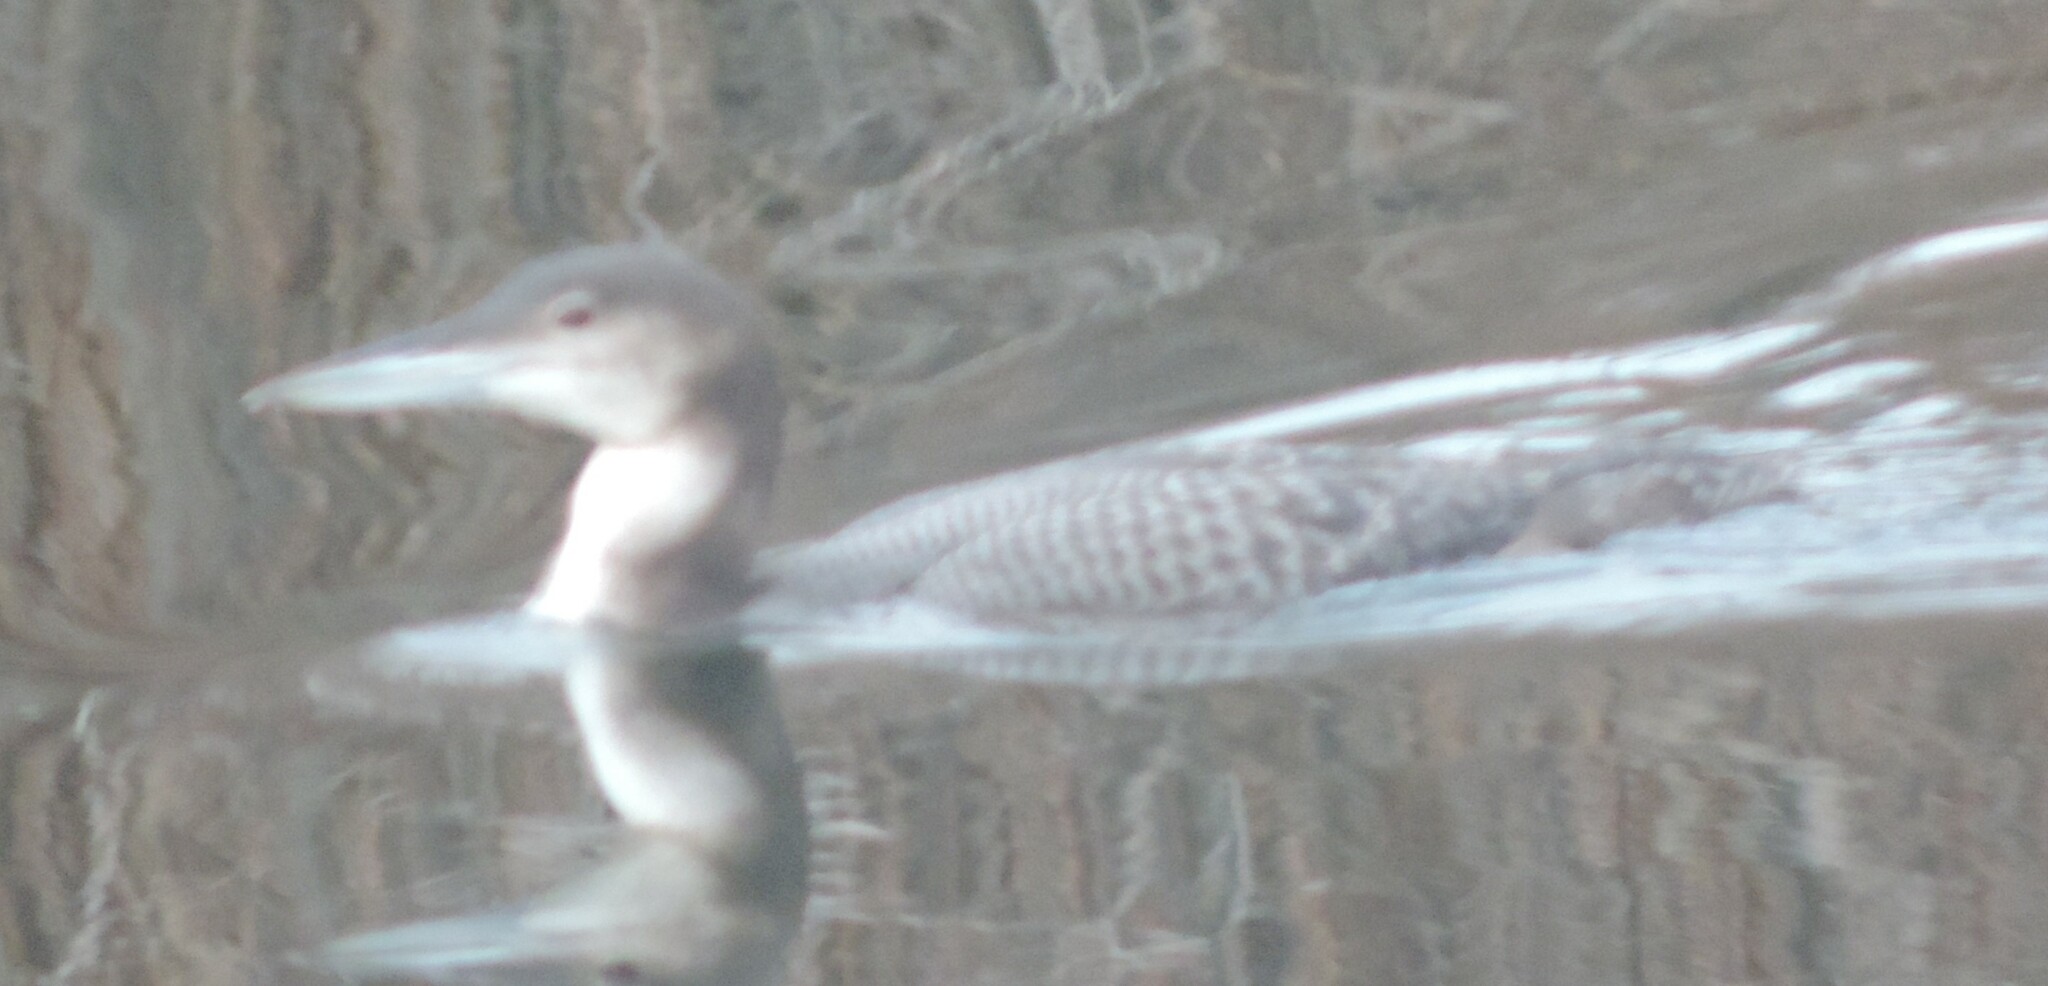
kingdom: Animalia
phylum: Chordata
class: Aves
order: Gaviiformes
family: Gaviidae
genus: Gavia
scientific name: Gavia immer
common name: Common loon
